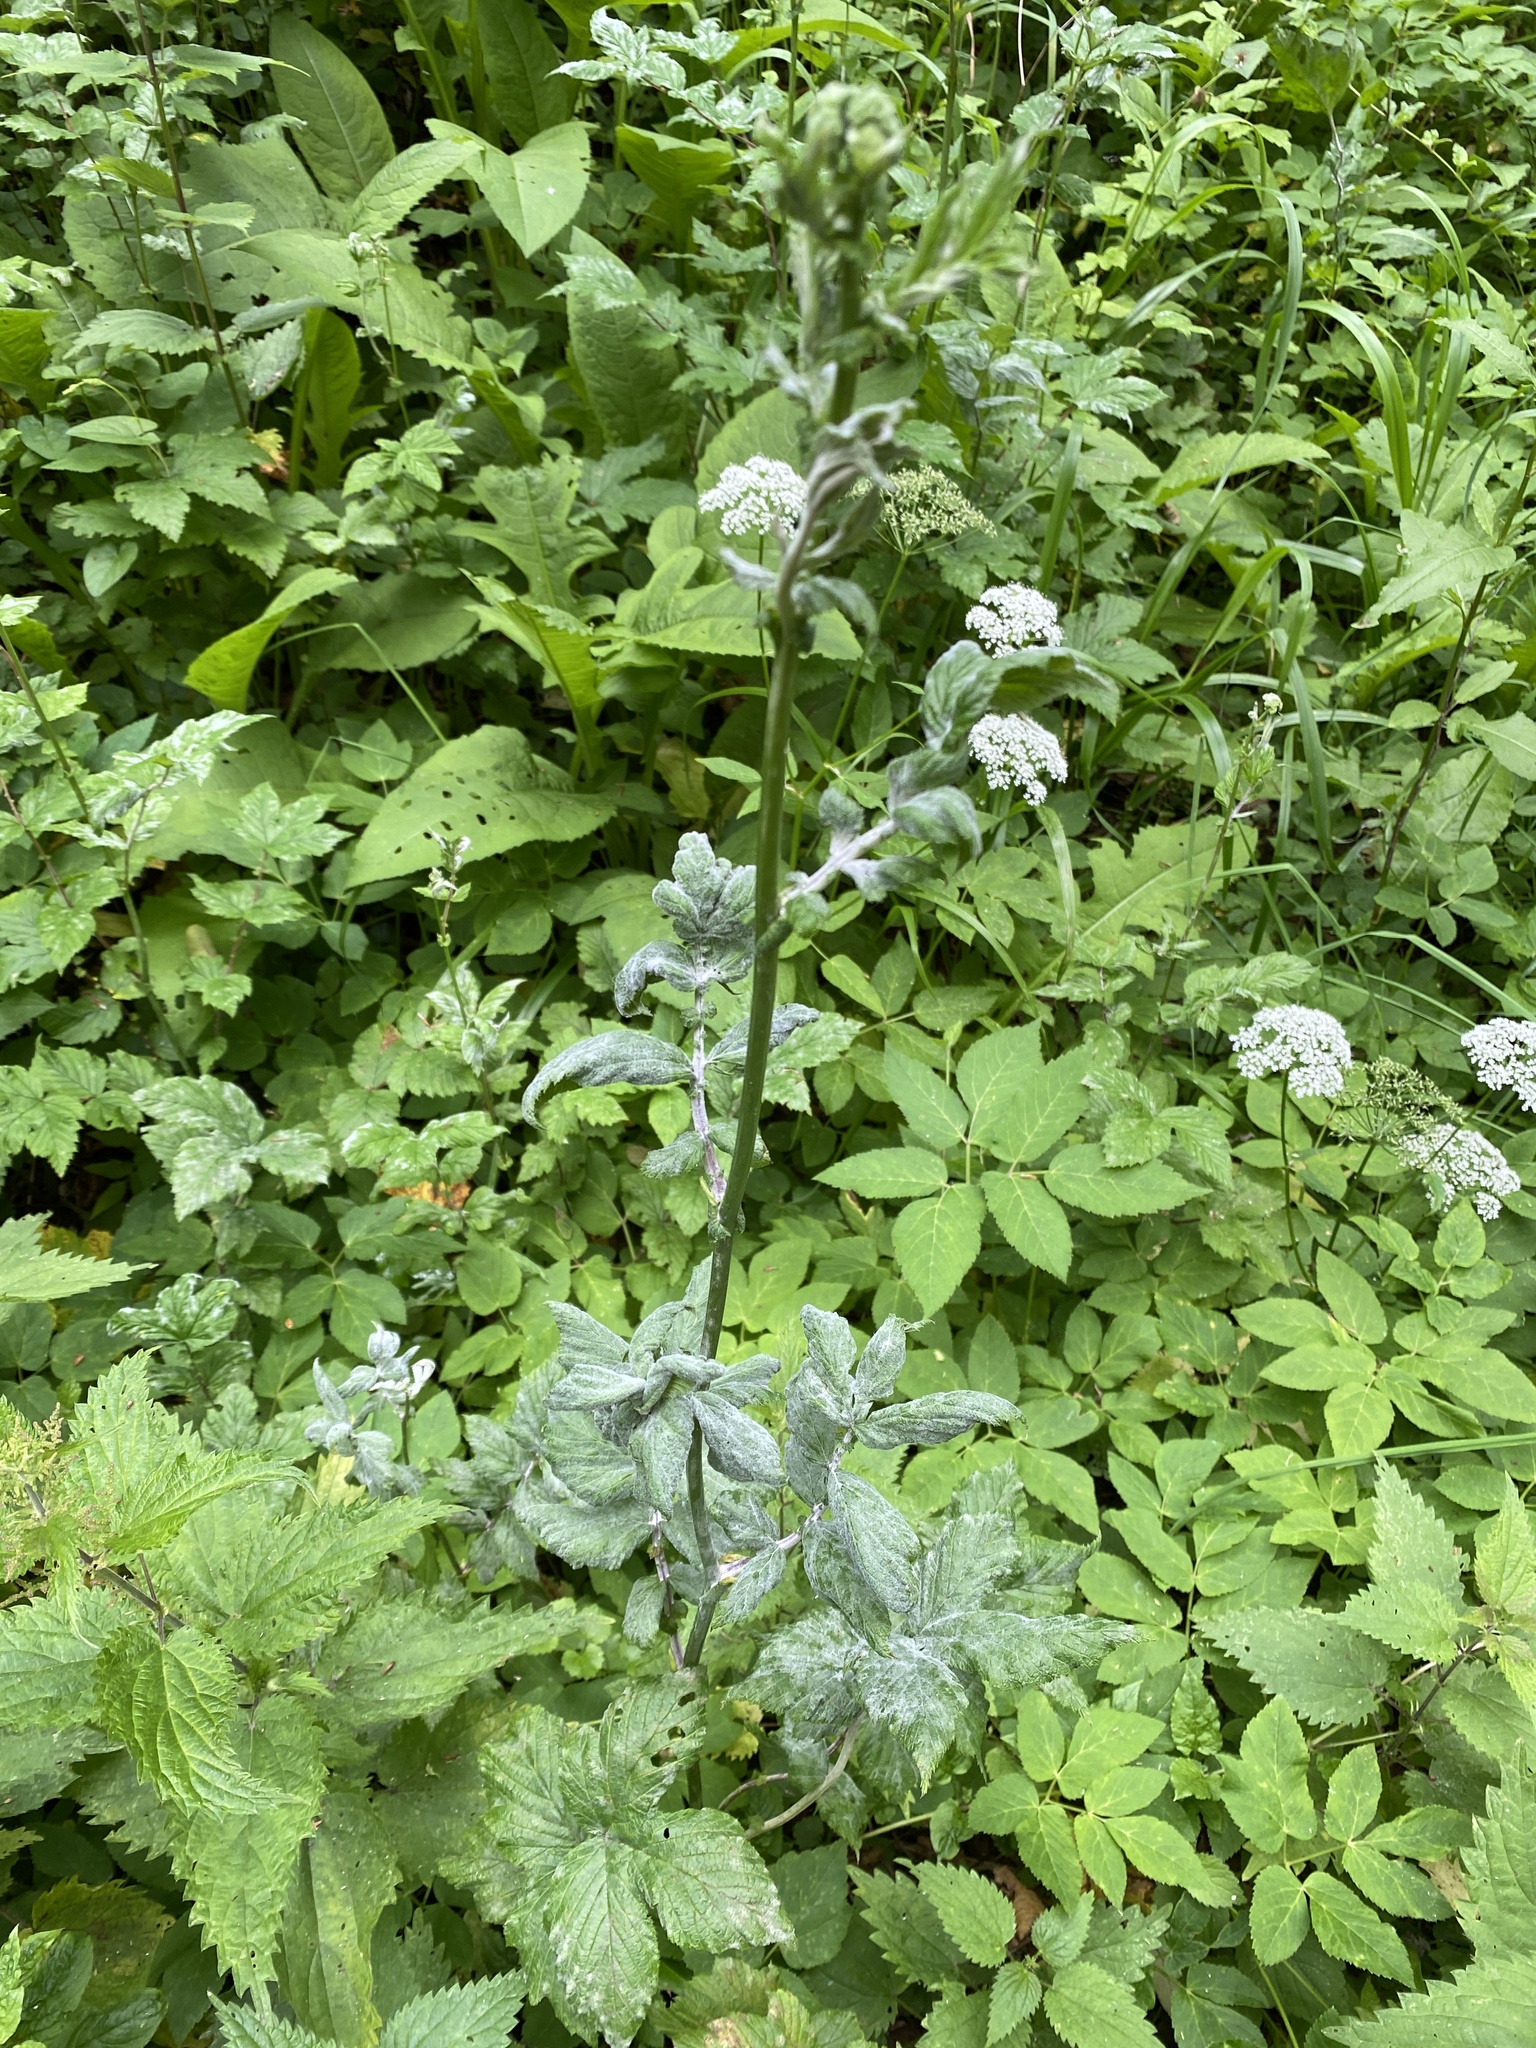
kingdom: Fungi
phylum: Ascomycota
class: Leotiomycetes
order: Helotiales
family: Erysiphaceae
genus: Podosphaera
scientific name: Podosphaera filipendulae
